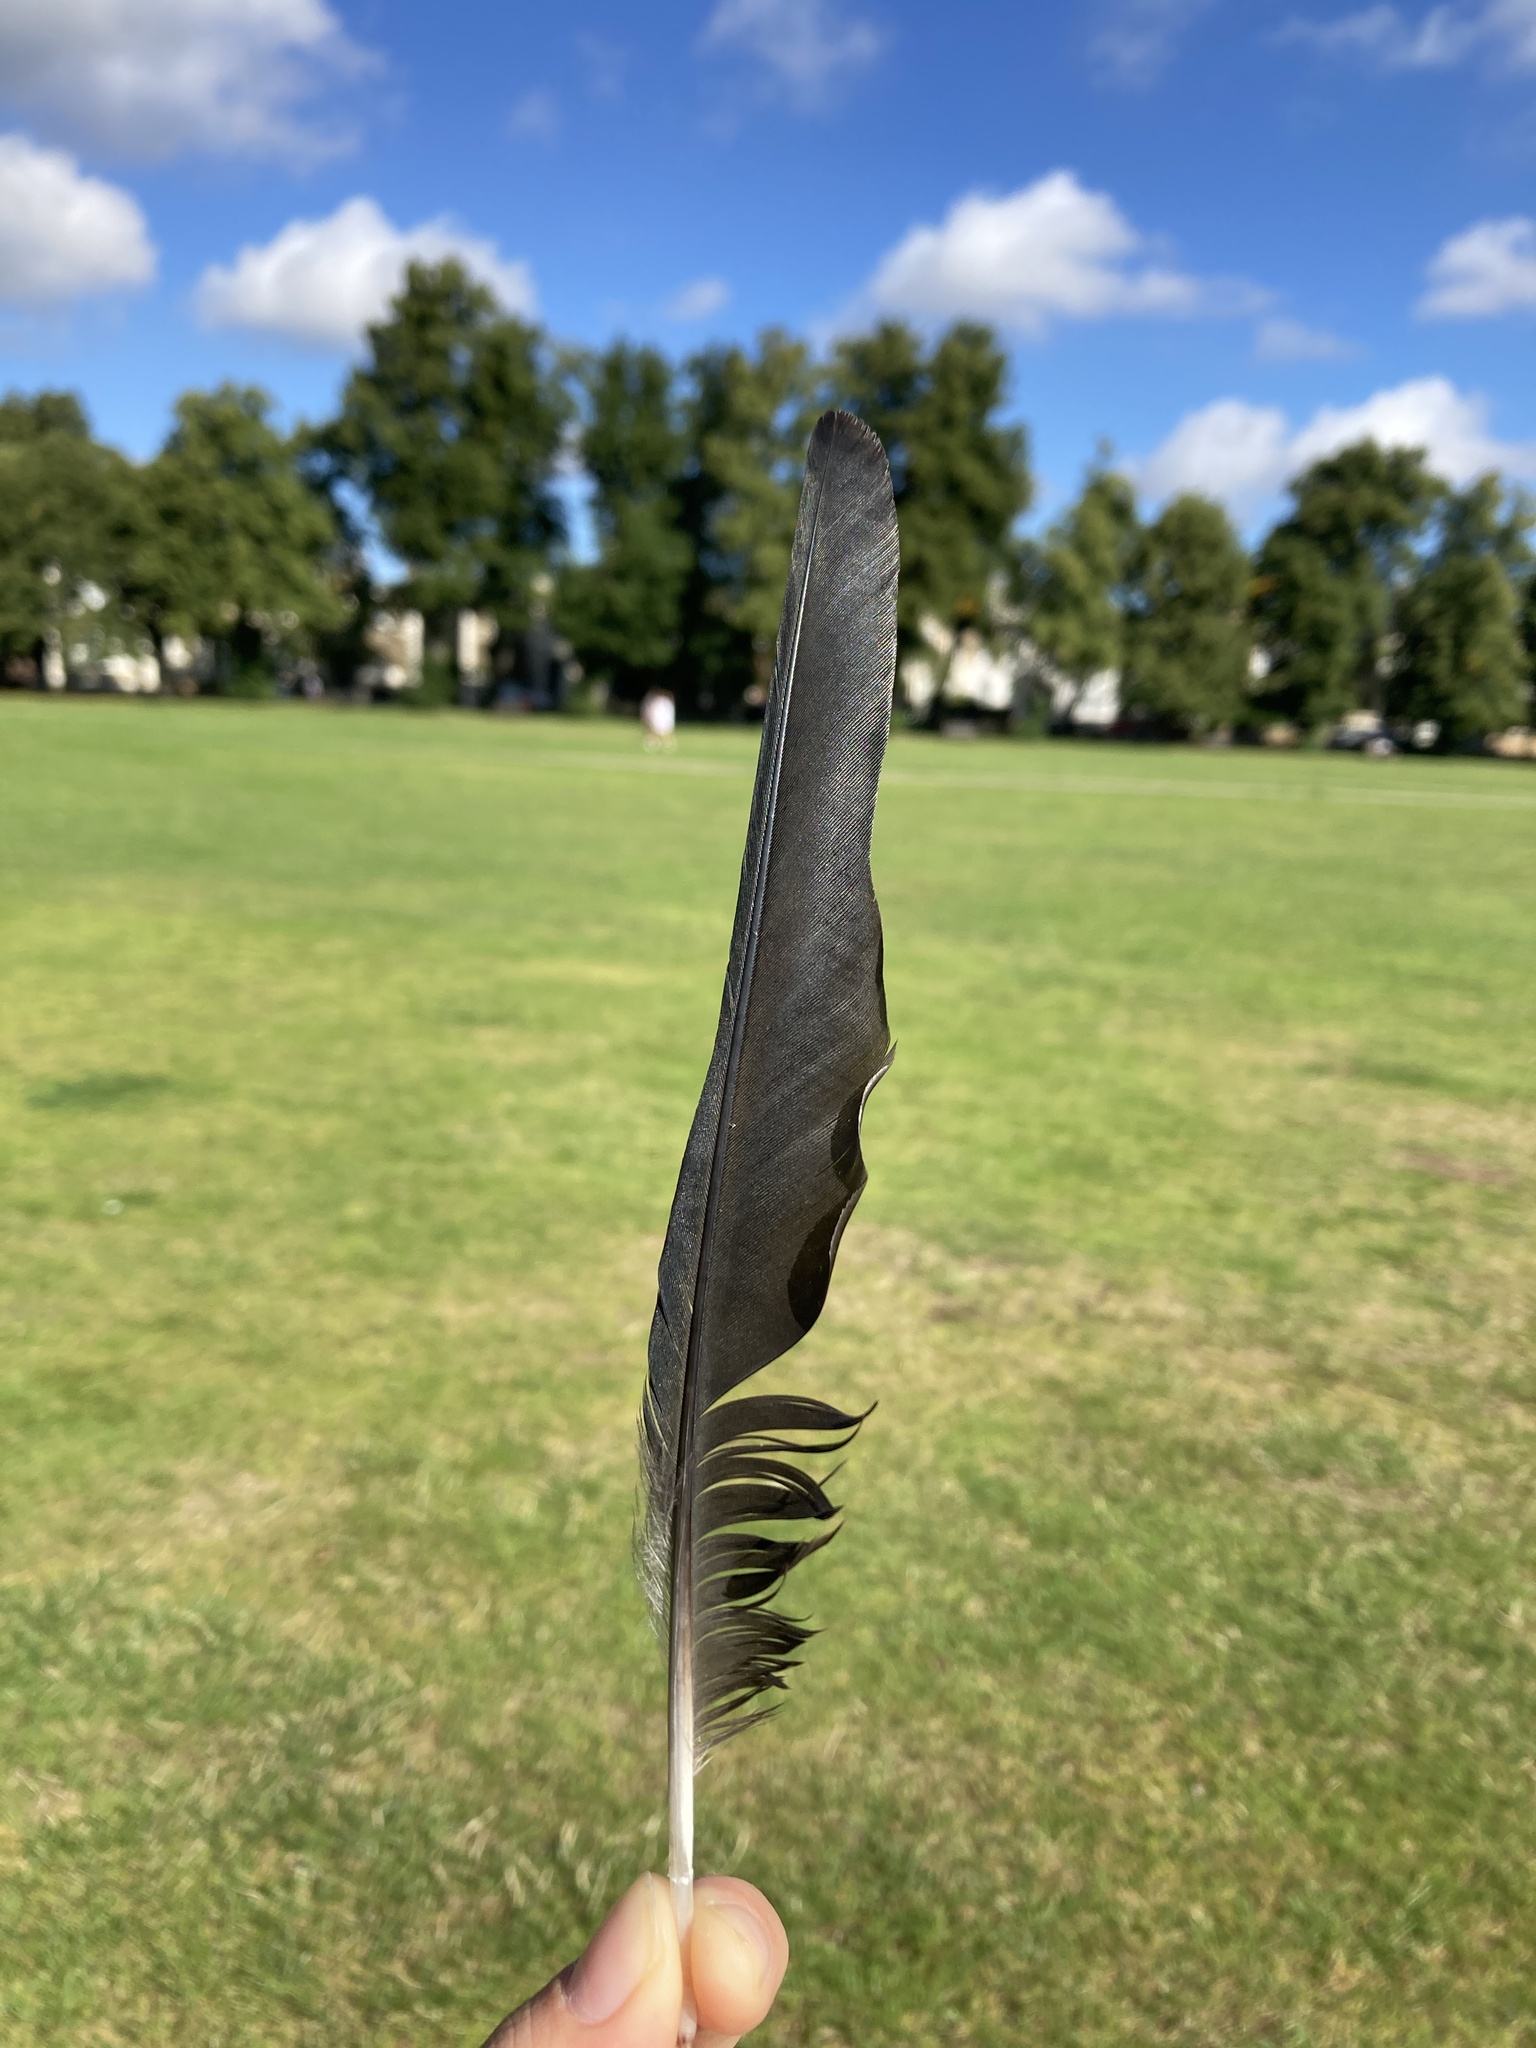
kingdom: Animalia
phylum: Chordata
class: Aves
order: Passeriformes
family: Corvidae
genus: Coloeus
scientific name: Coloeus monedula
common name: Western jackdaw
